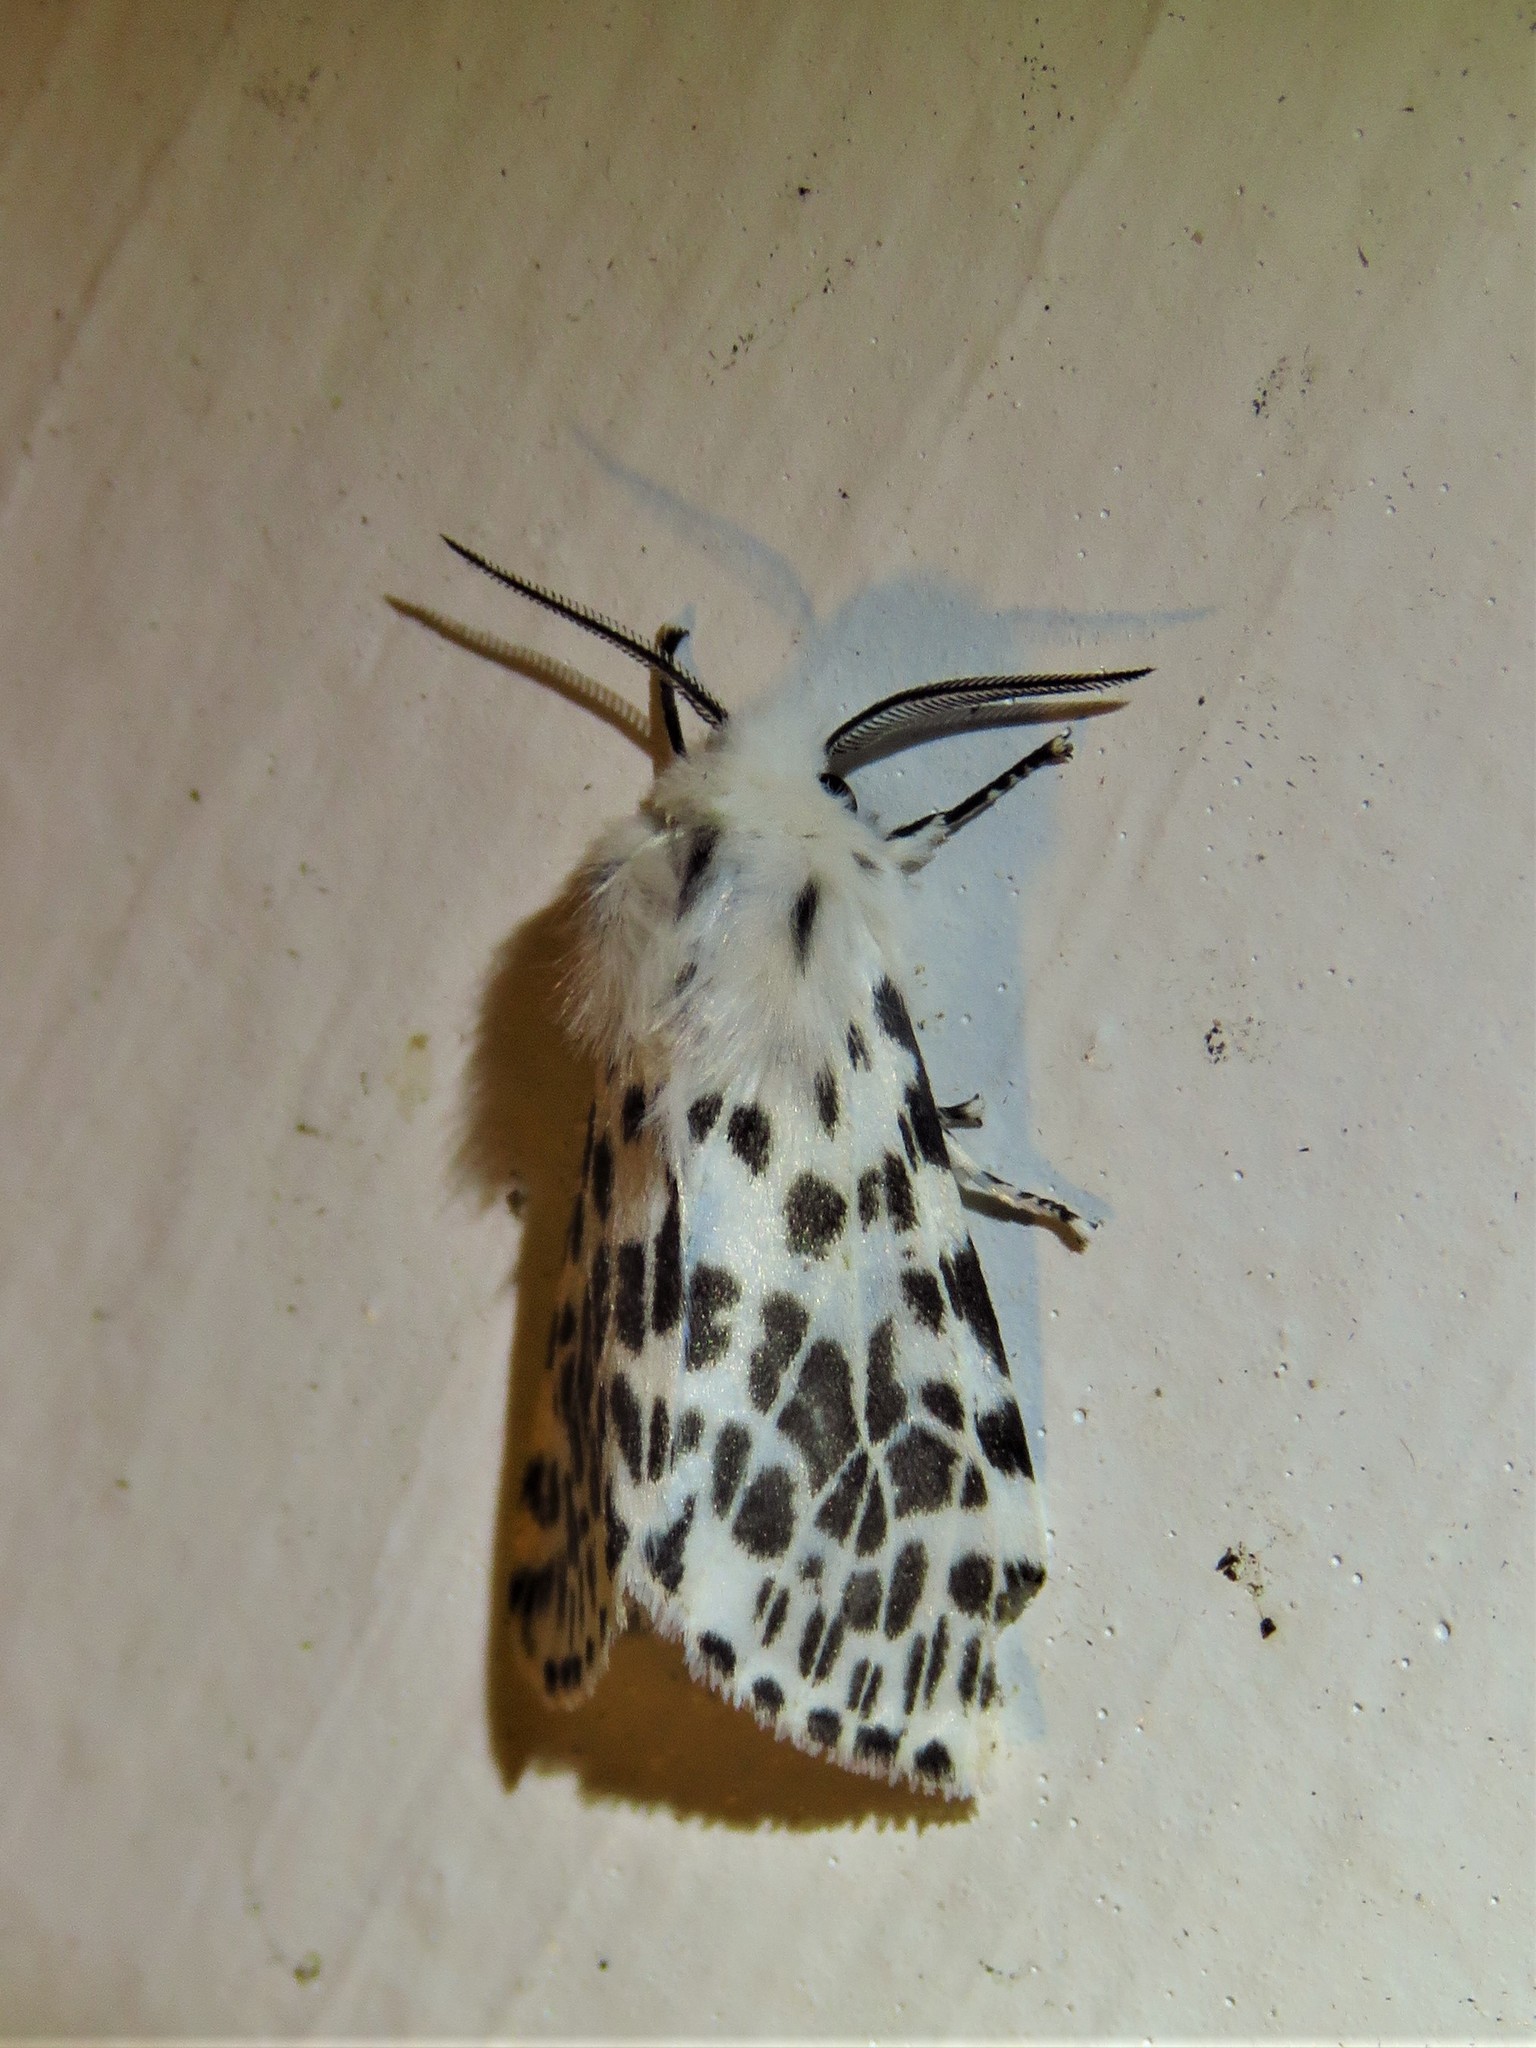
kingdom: Animalia
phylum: Arthropoda
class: Insecta
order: Lepidoptera
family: Erebidae
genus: Hyphantria
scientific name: Hyphantria cunea
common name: American white moth
